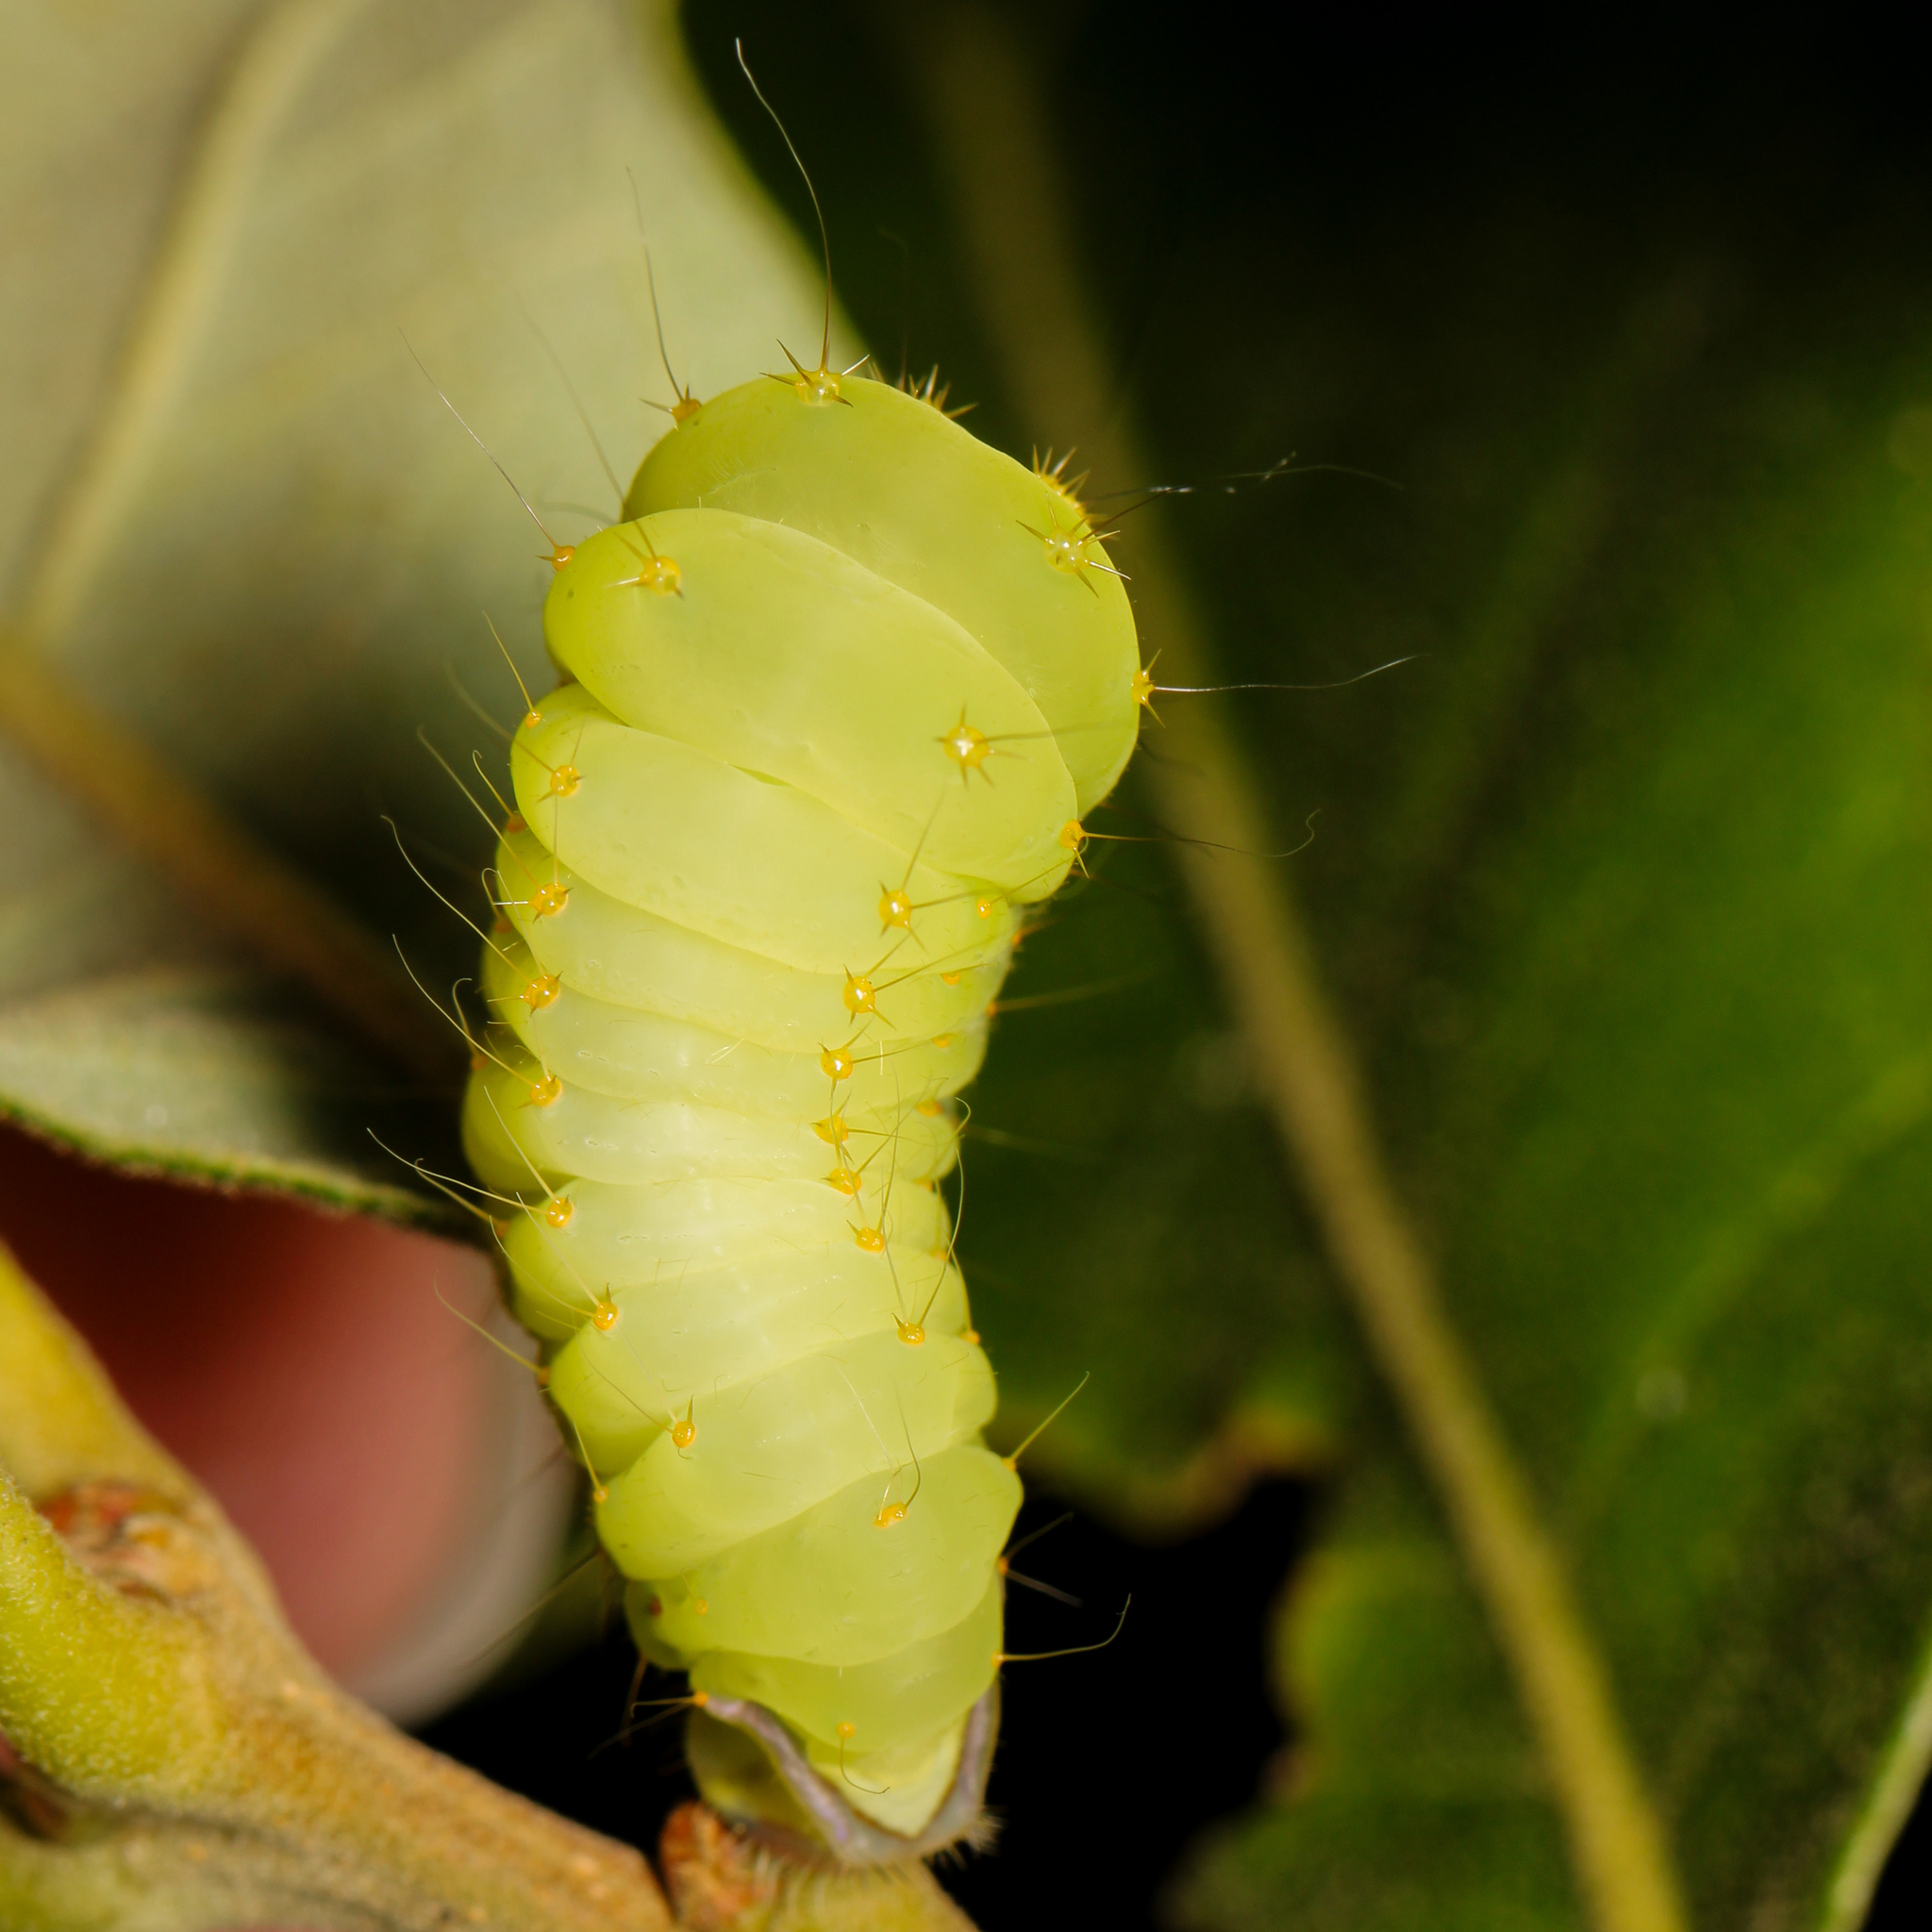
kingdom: Animalia
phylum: Arthropoda
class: Insecta
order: Lepidoptera
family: Saturniidae
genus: Antheraea
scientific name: Antheraea polyphemus
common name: Polyphemus moth
